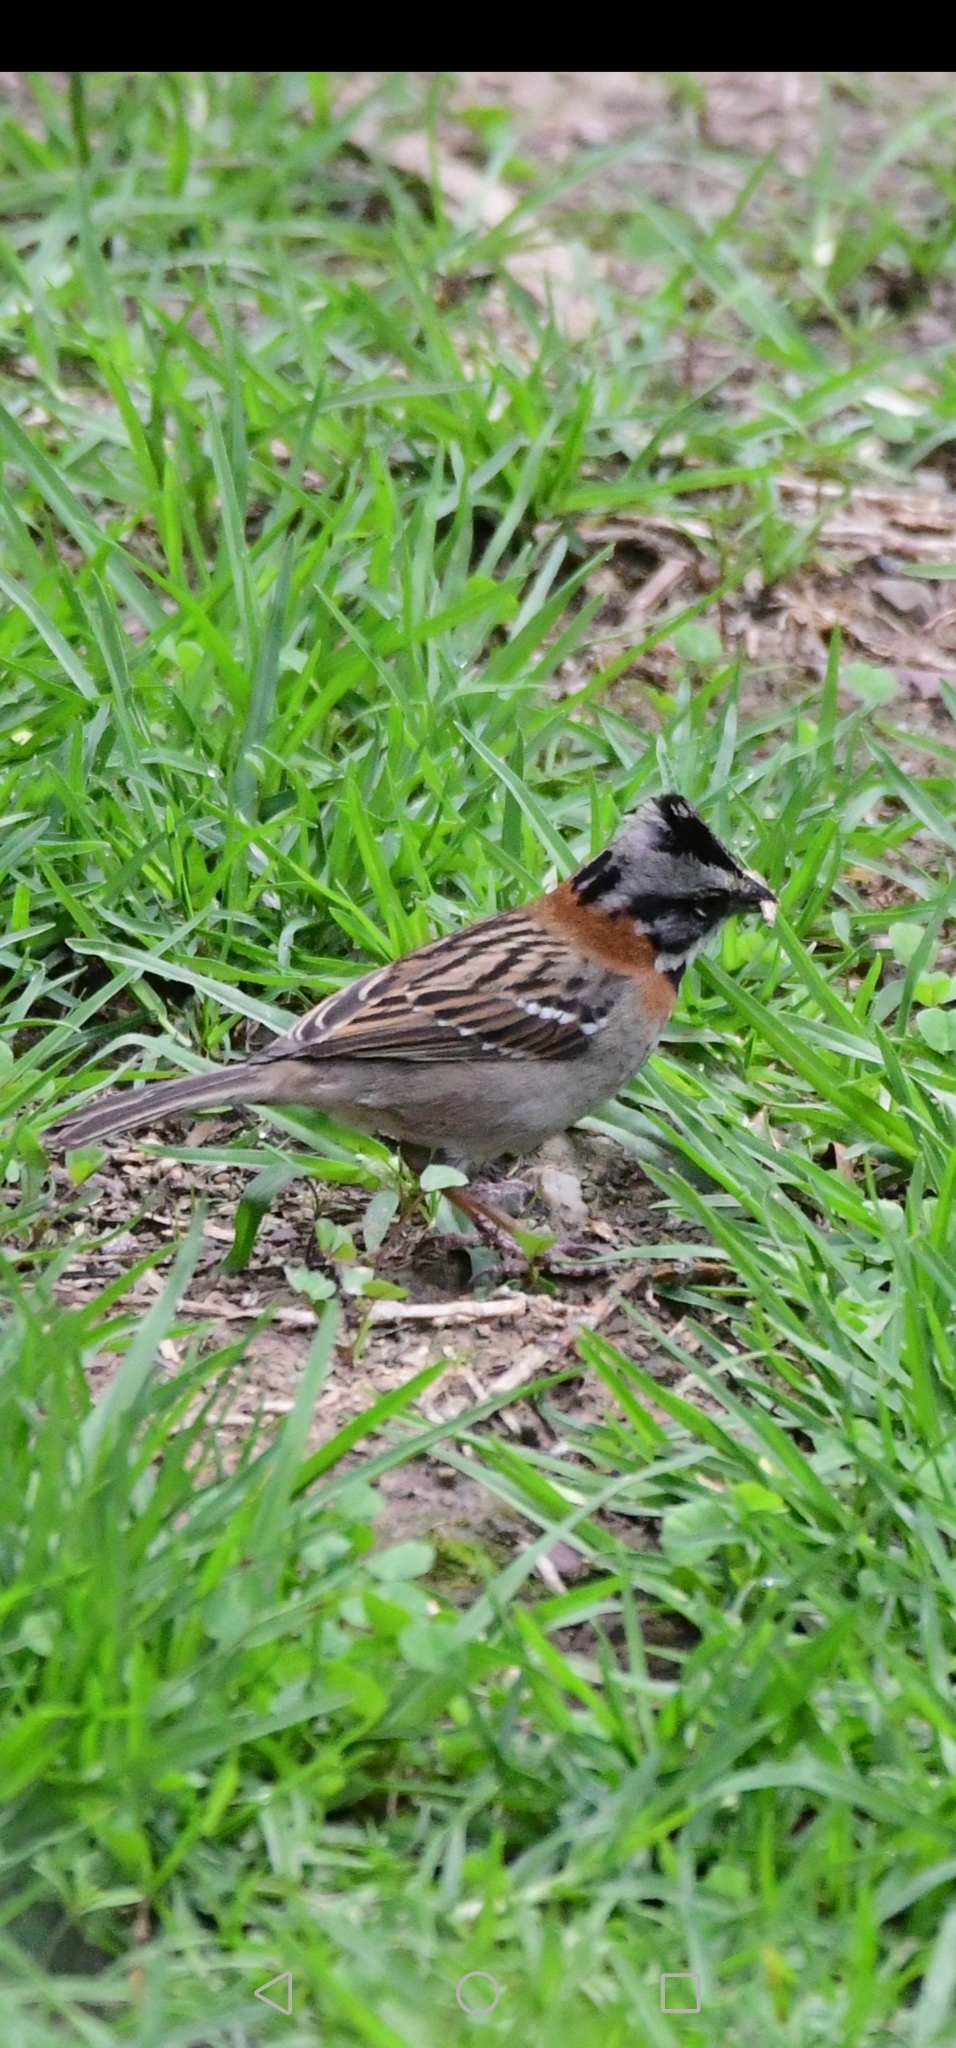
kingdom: Animalia
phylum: Chordata
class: Aves
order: Passeriformes
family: Passerellidae
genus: Zonotrichia
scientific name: Zonotrichia capensis
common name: Rufous-collared sparrow
